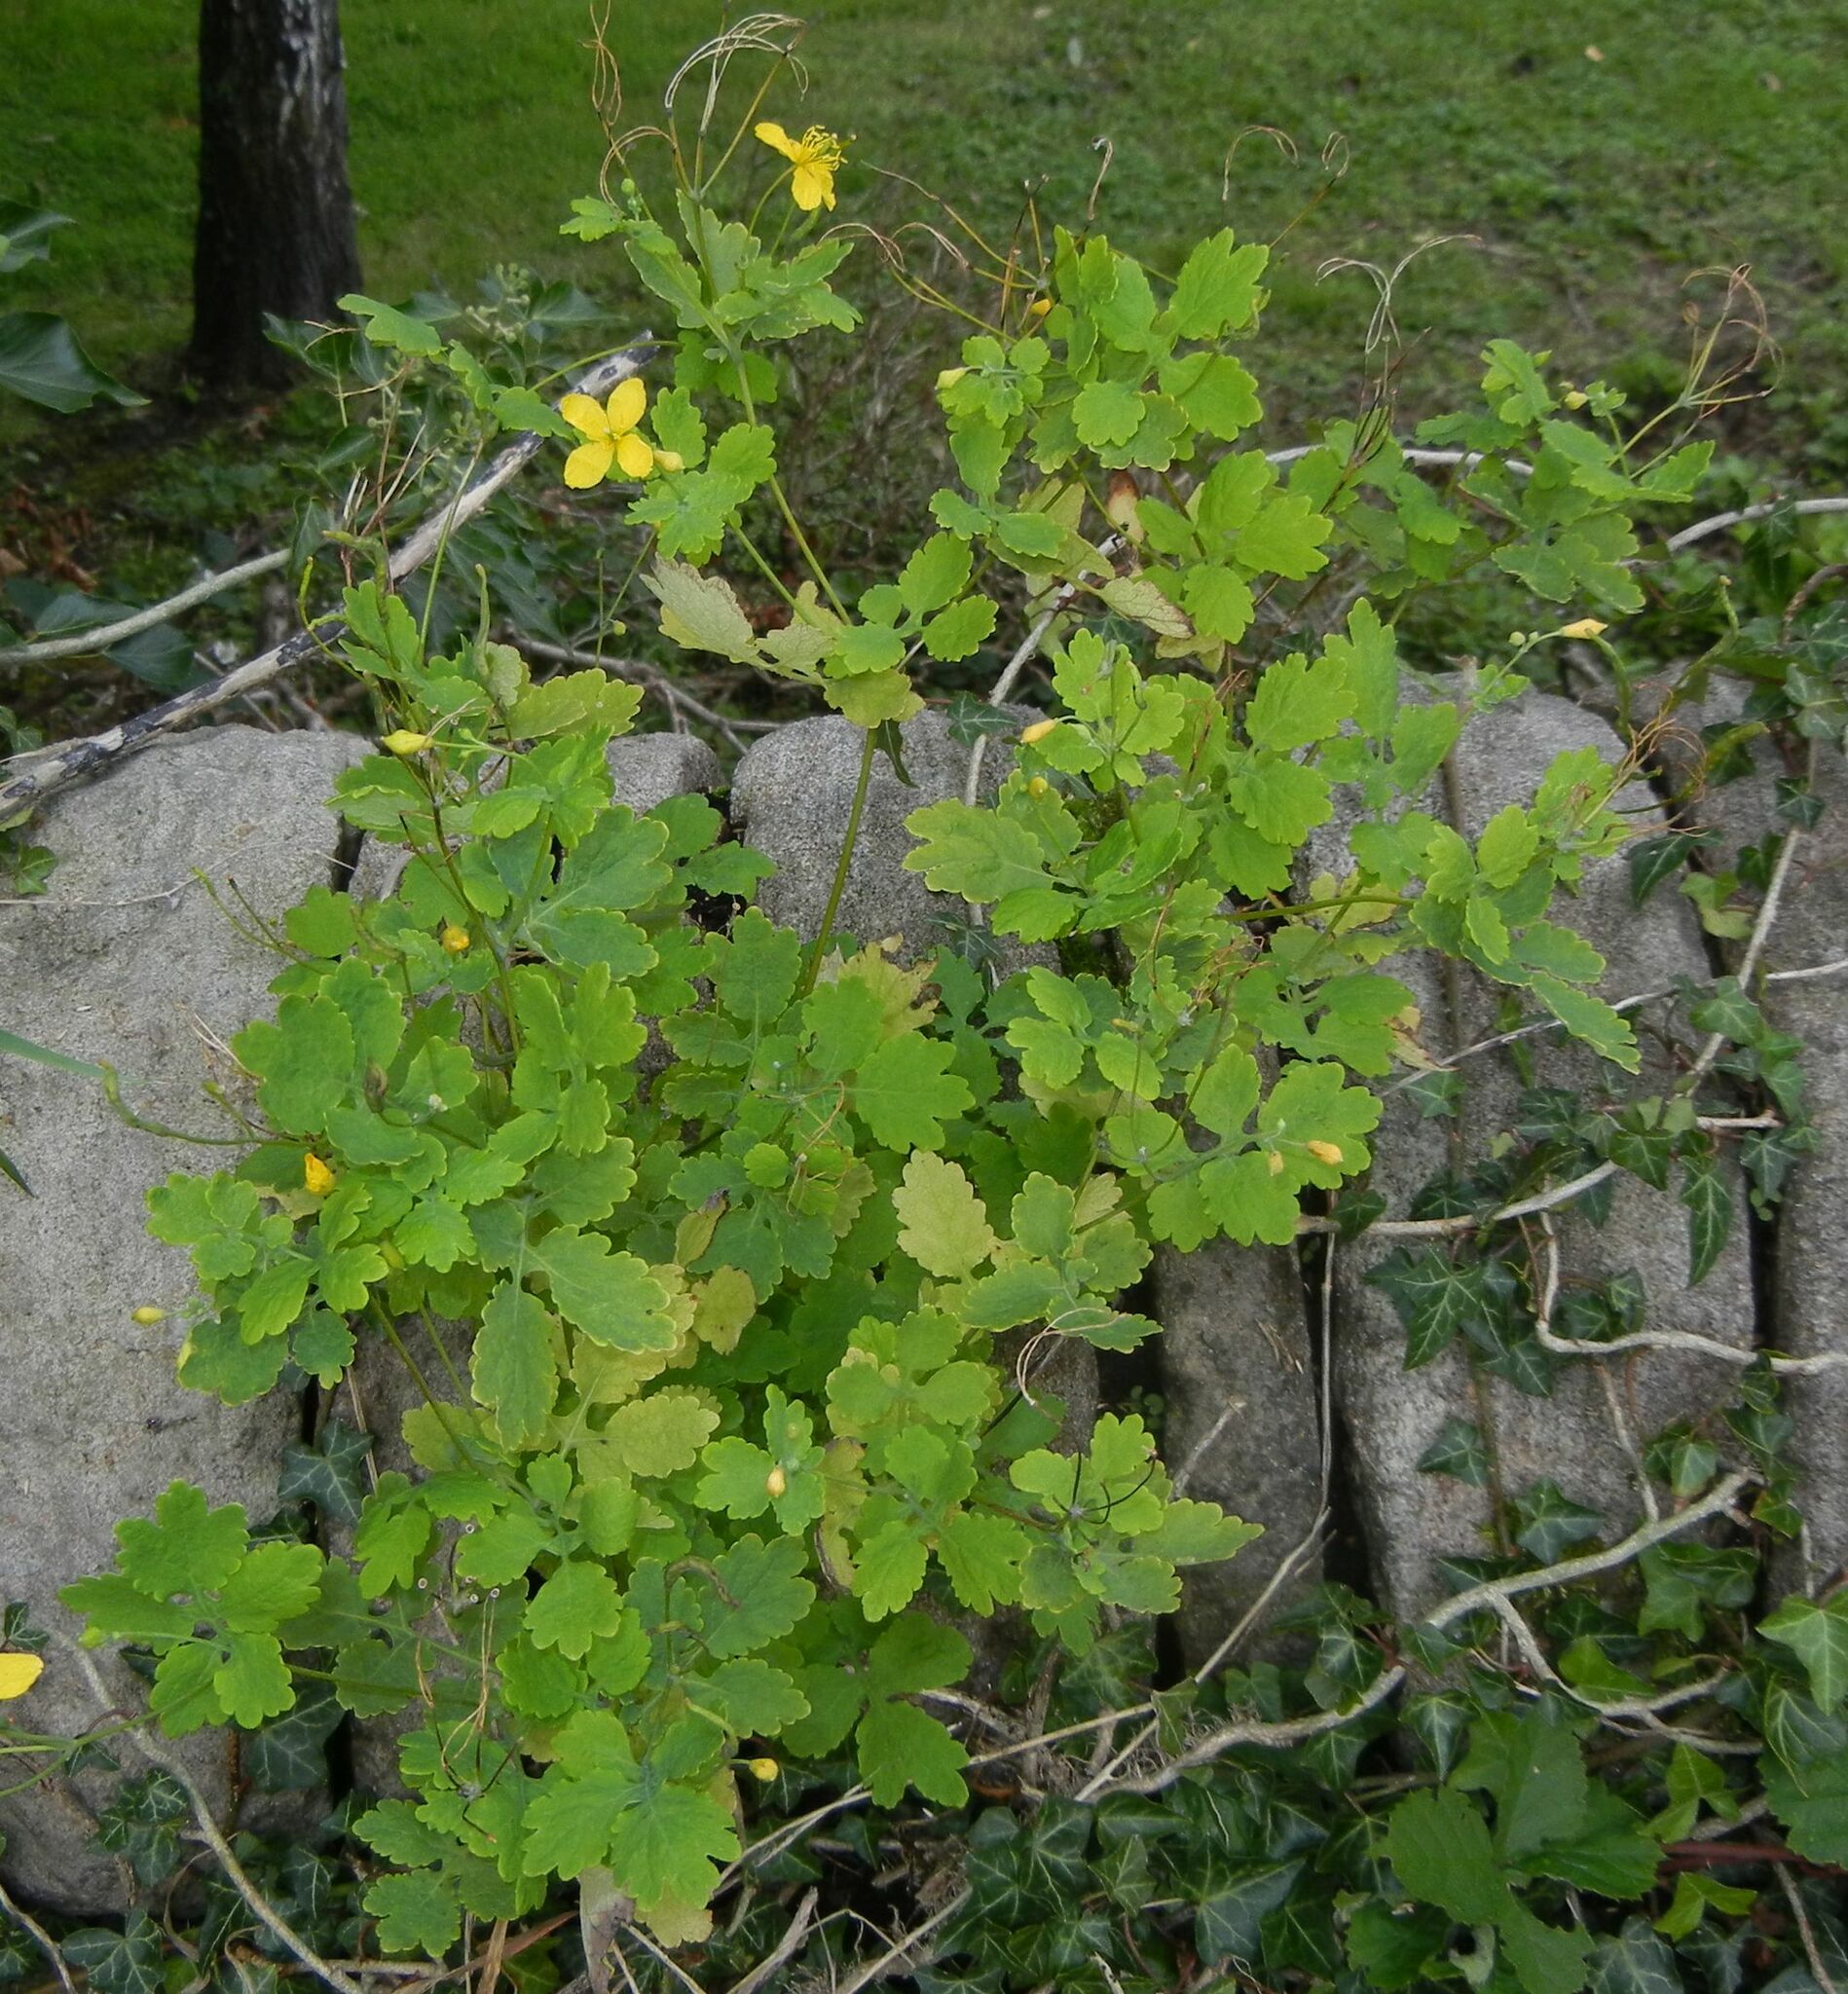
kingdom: Plantae
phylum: Tracheophyta
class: Magnoliopsida
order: Ranunculales
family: Papaveraceae
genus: Chelidonium
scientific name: Chelidonium majus
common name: Greater celandine
